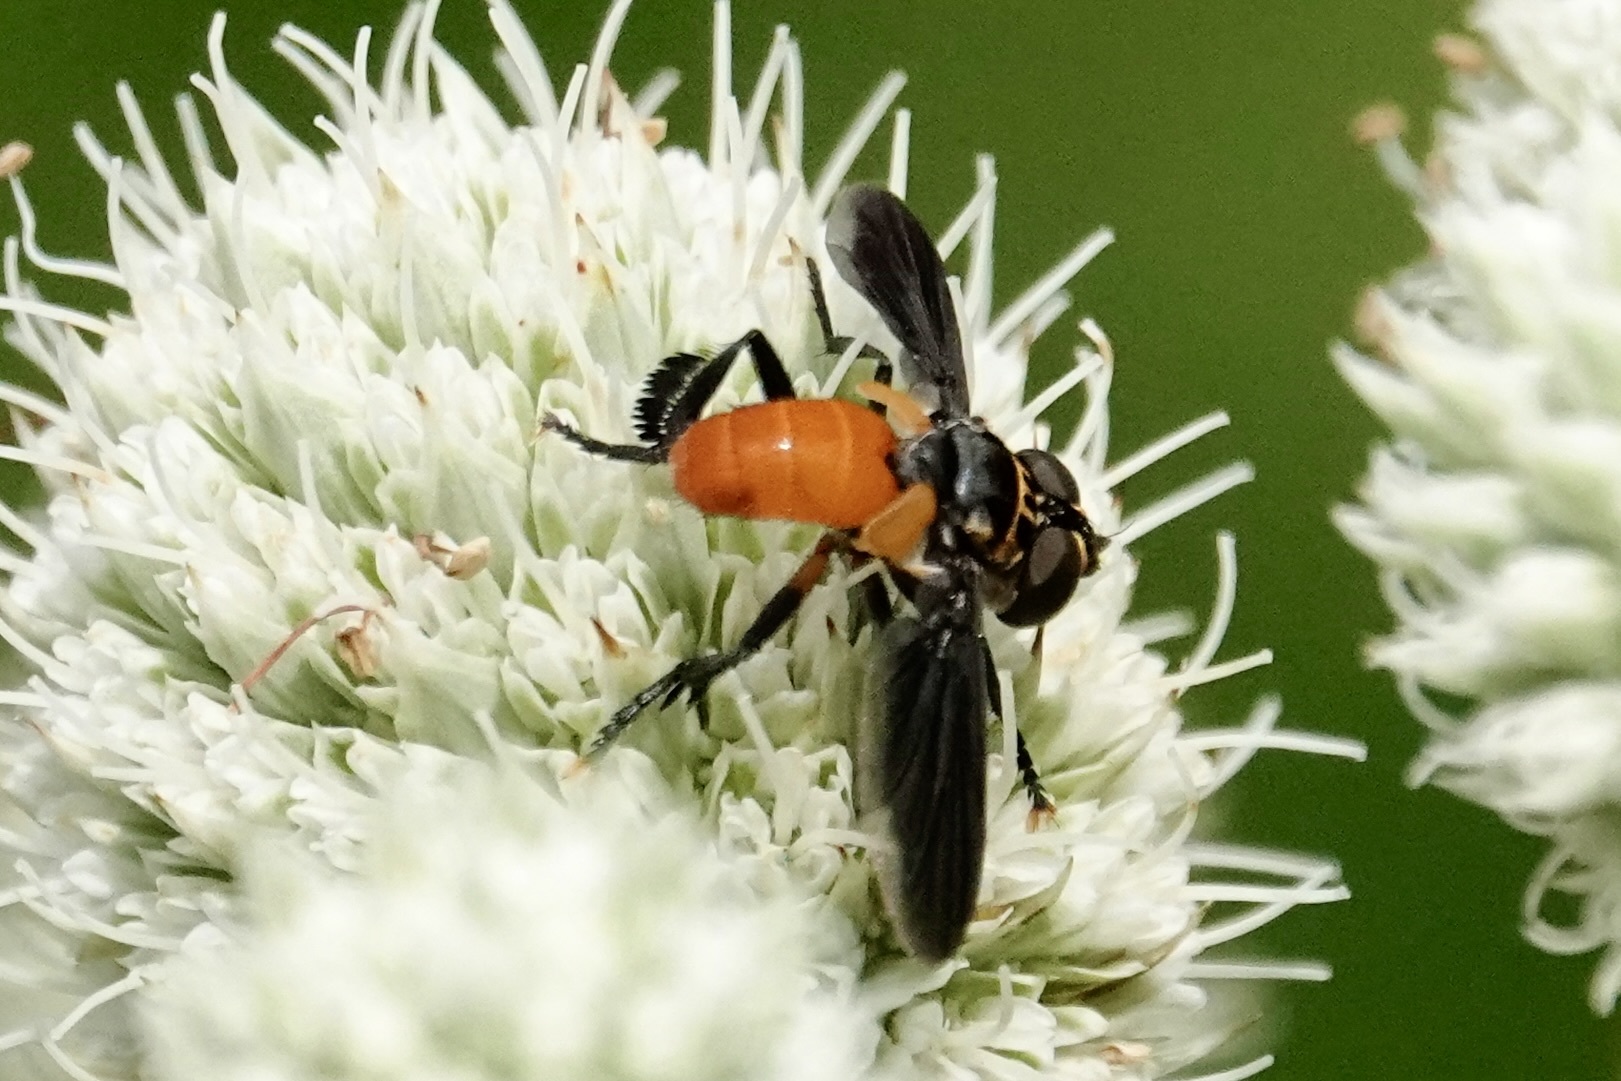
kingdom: Animalia
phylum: Arthropoda
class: Insecta
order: Diptera
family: Tachinidae
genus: Trichopoda
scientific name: Trichopoda pennipes
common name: Tachinid fly
